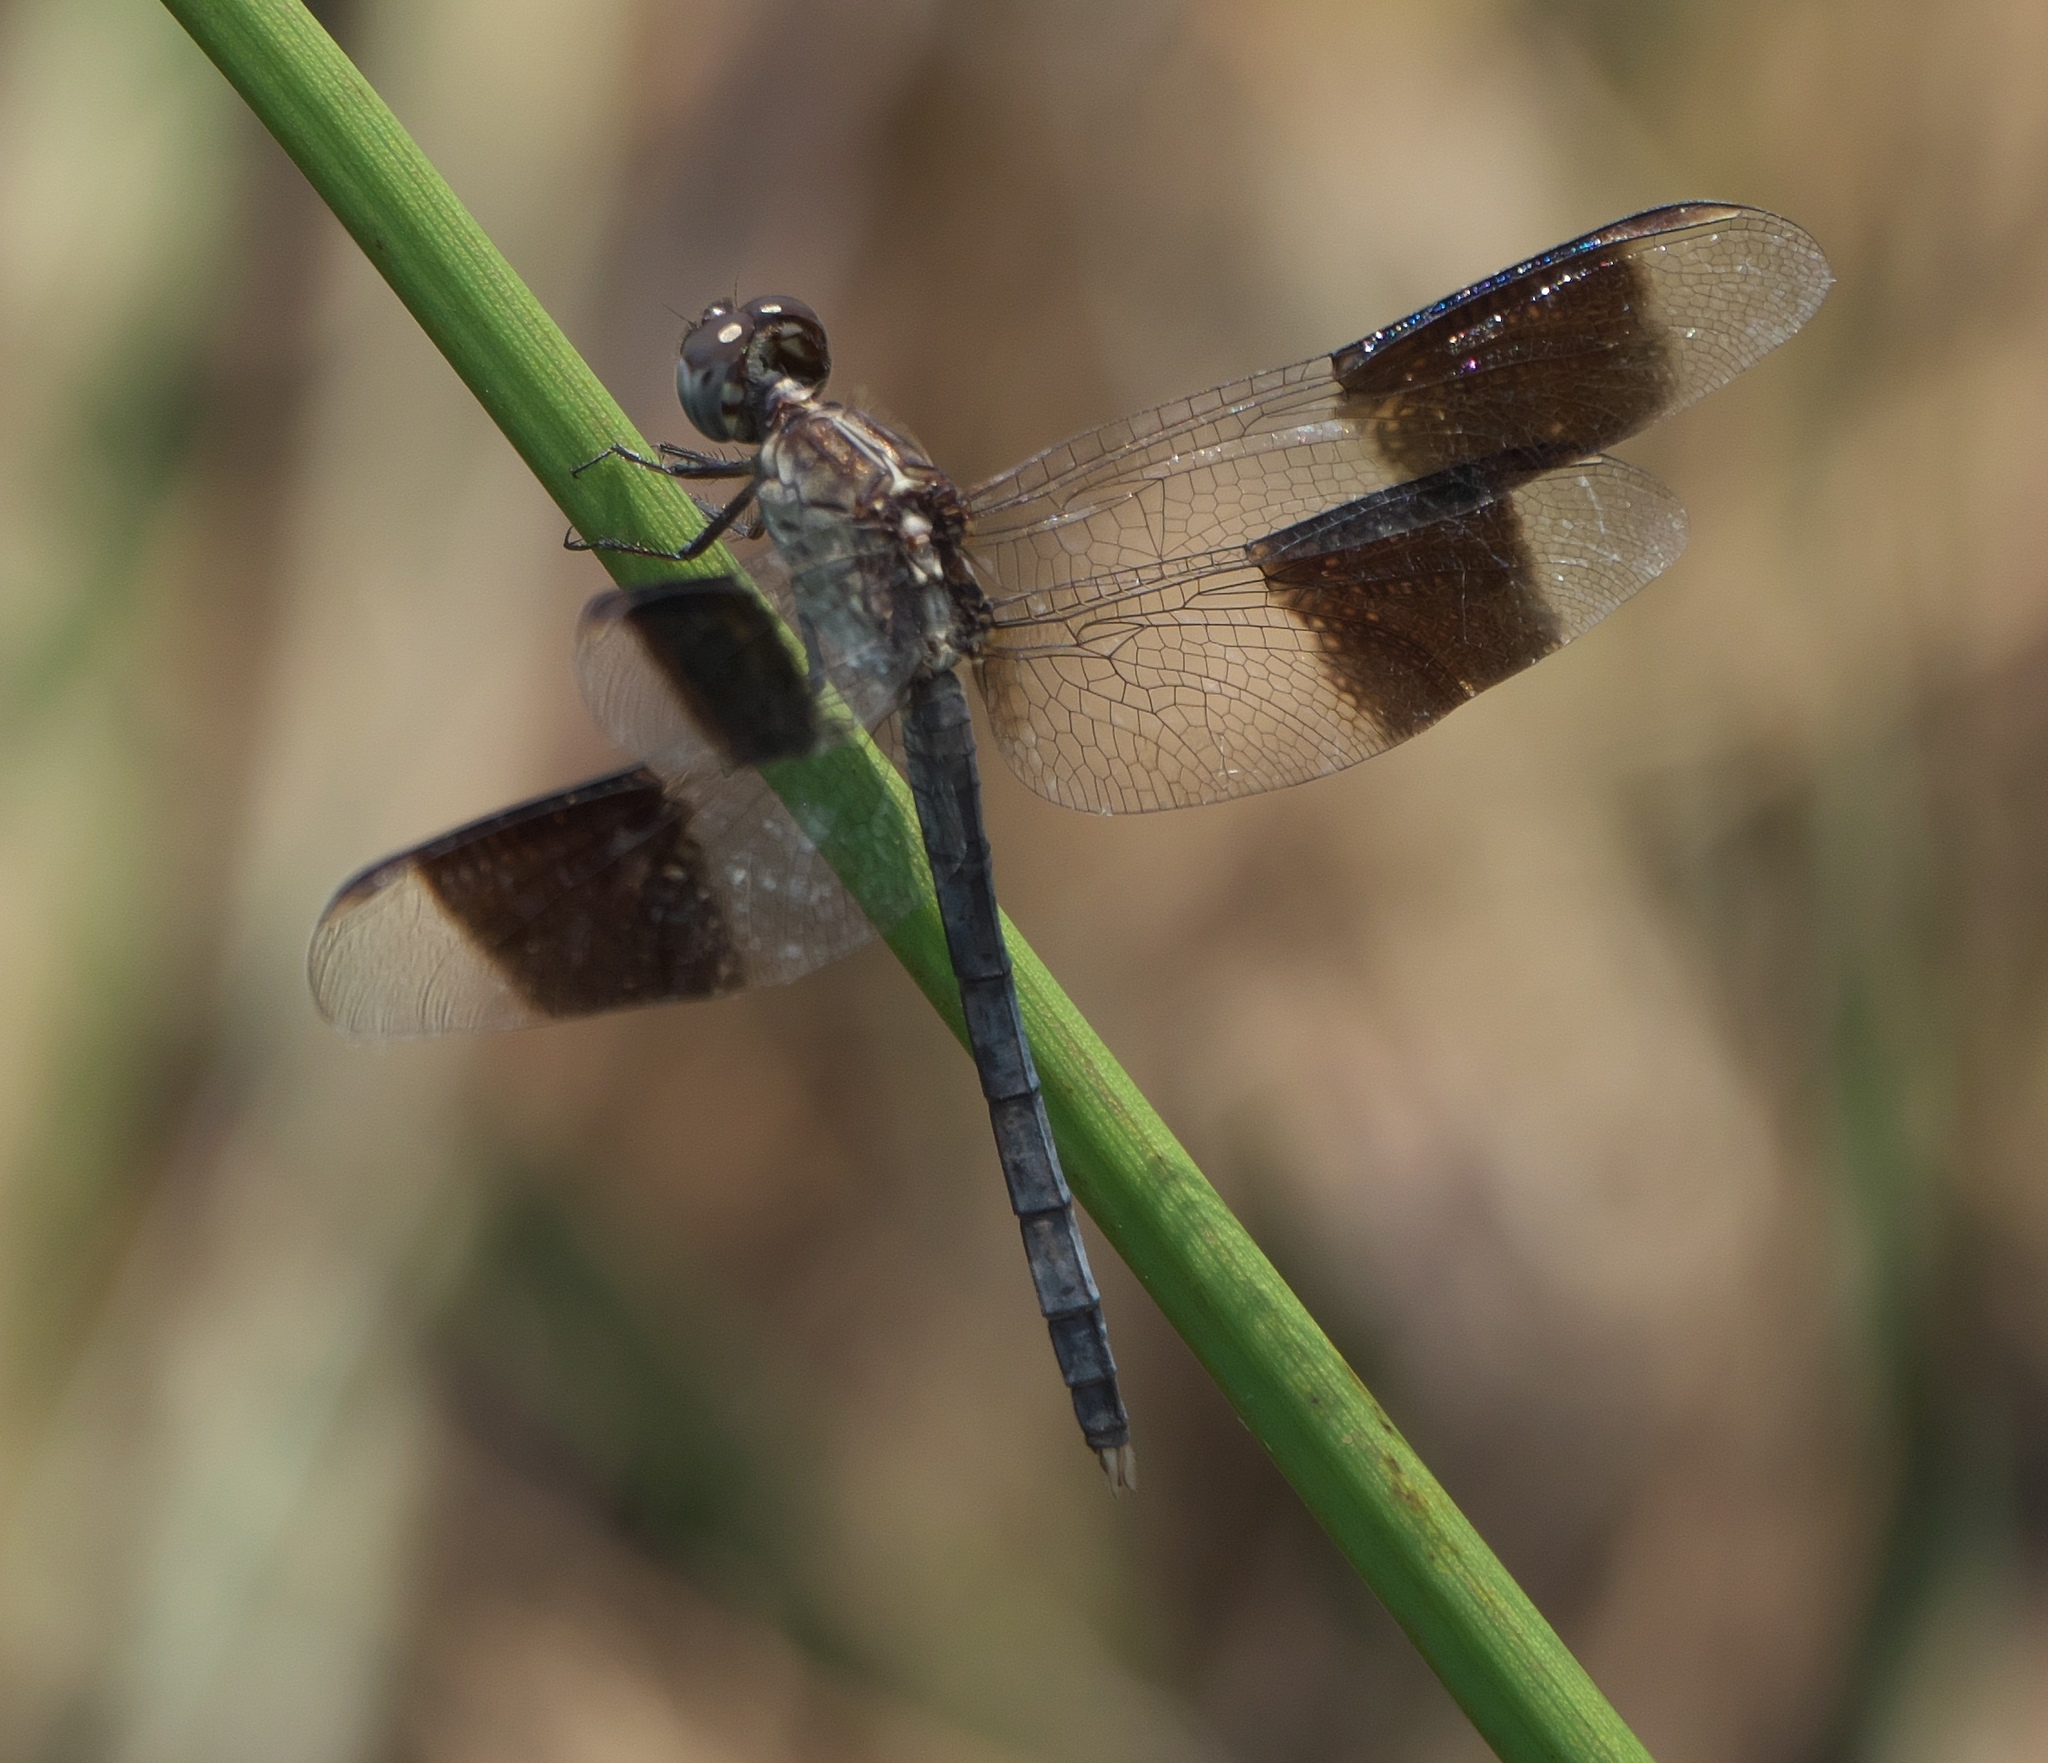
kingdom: Animalia
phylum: Arthropoda
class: Insecta
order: Odonata
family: Libellulidae
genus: Erythrodiplax
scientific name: Erythrodiplax umbrata
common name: Band-winged dragonlet
